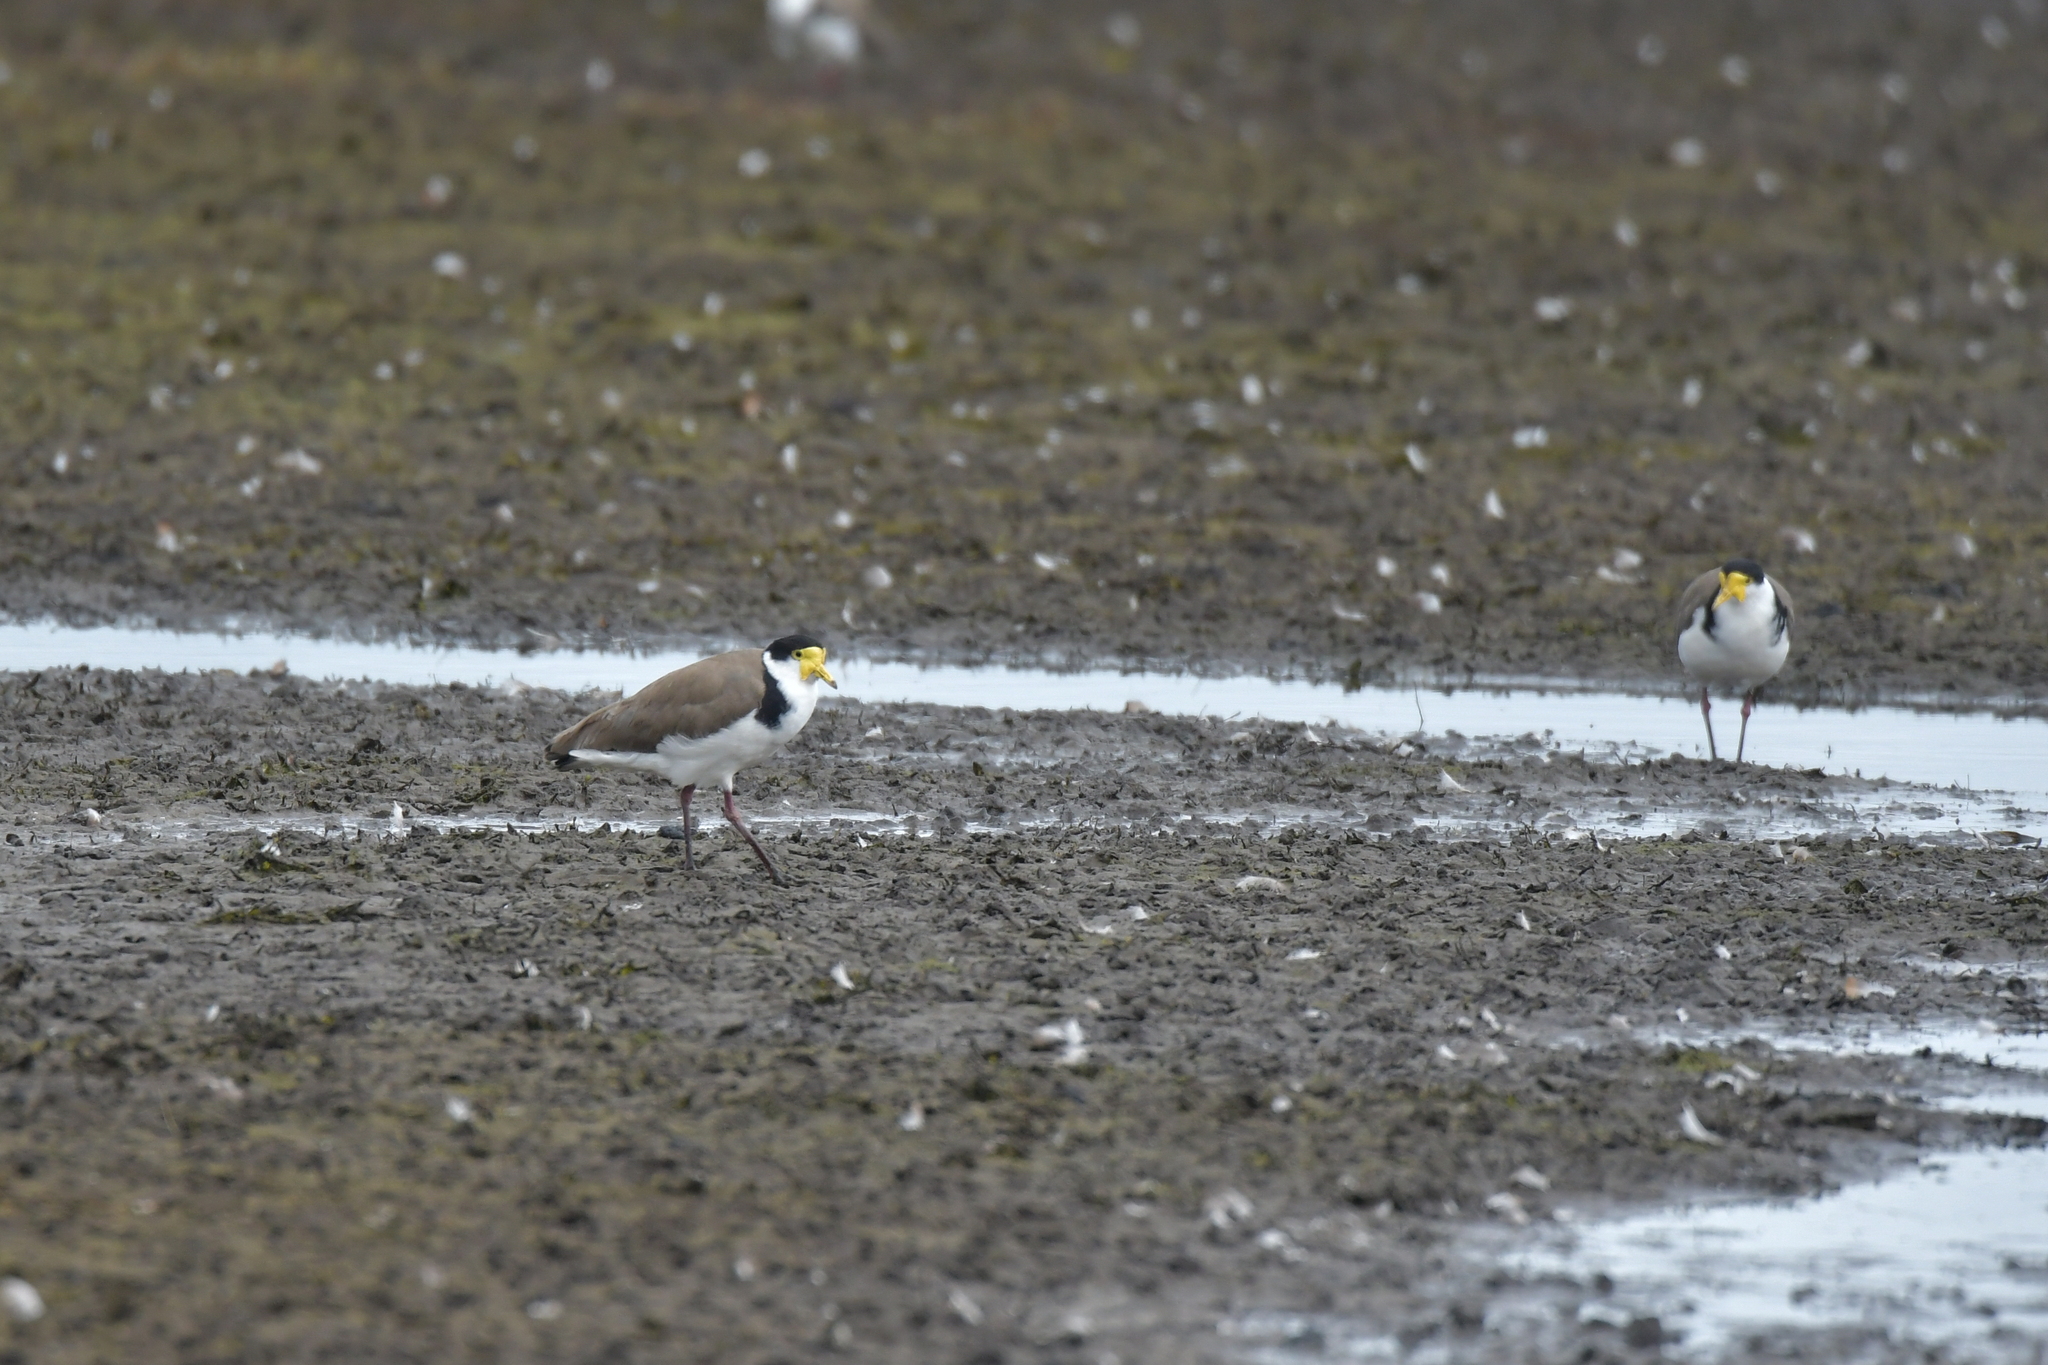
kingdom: Animalia
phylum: Chordata
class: Aves
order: Charadriiformes
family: Charadriidae
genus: Vanellus
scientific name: Vanellus miles
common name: Masked lapwing
